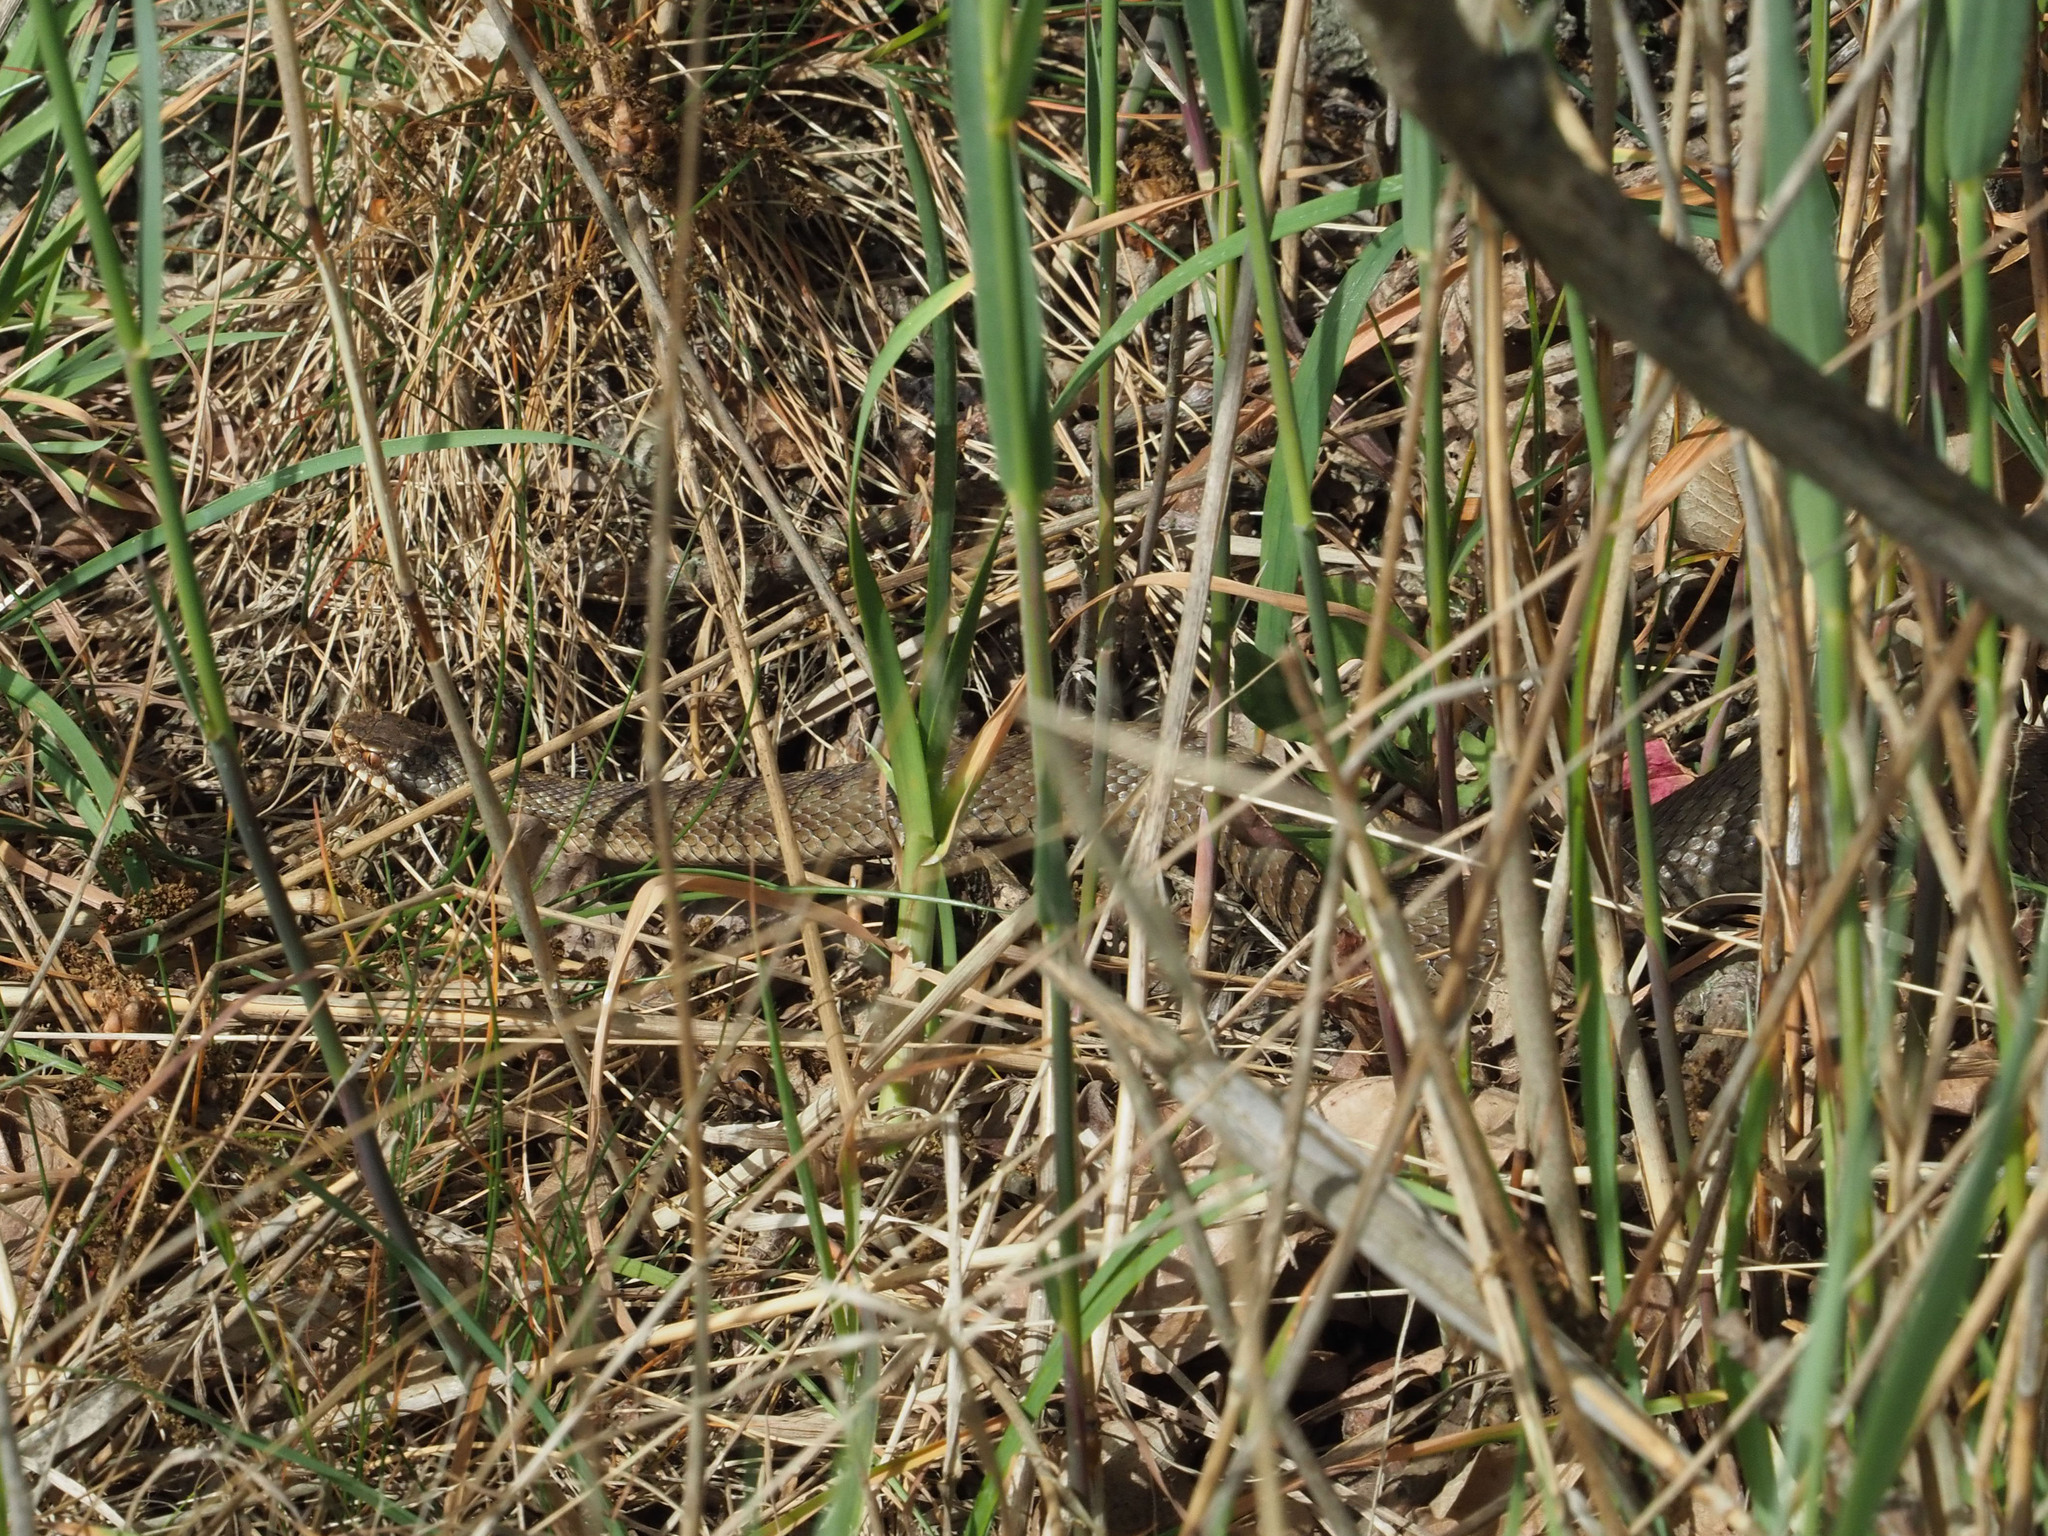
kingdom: Animalia
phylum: Chordata
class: Squamata
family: Viperidae
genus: Vipera
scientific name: Vipera berus
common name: Adder
